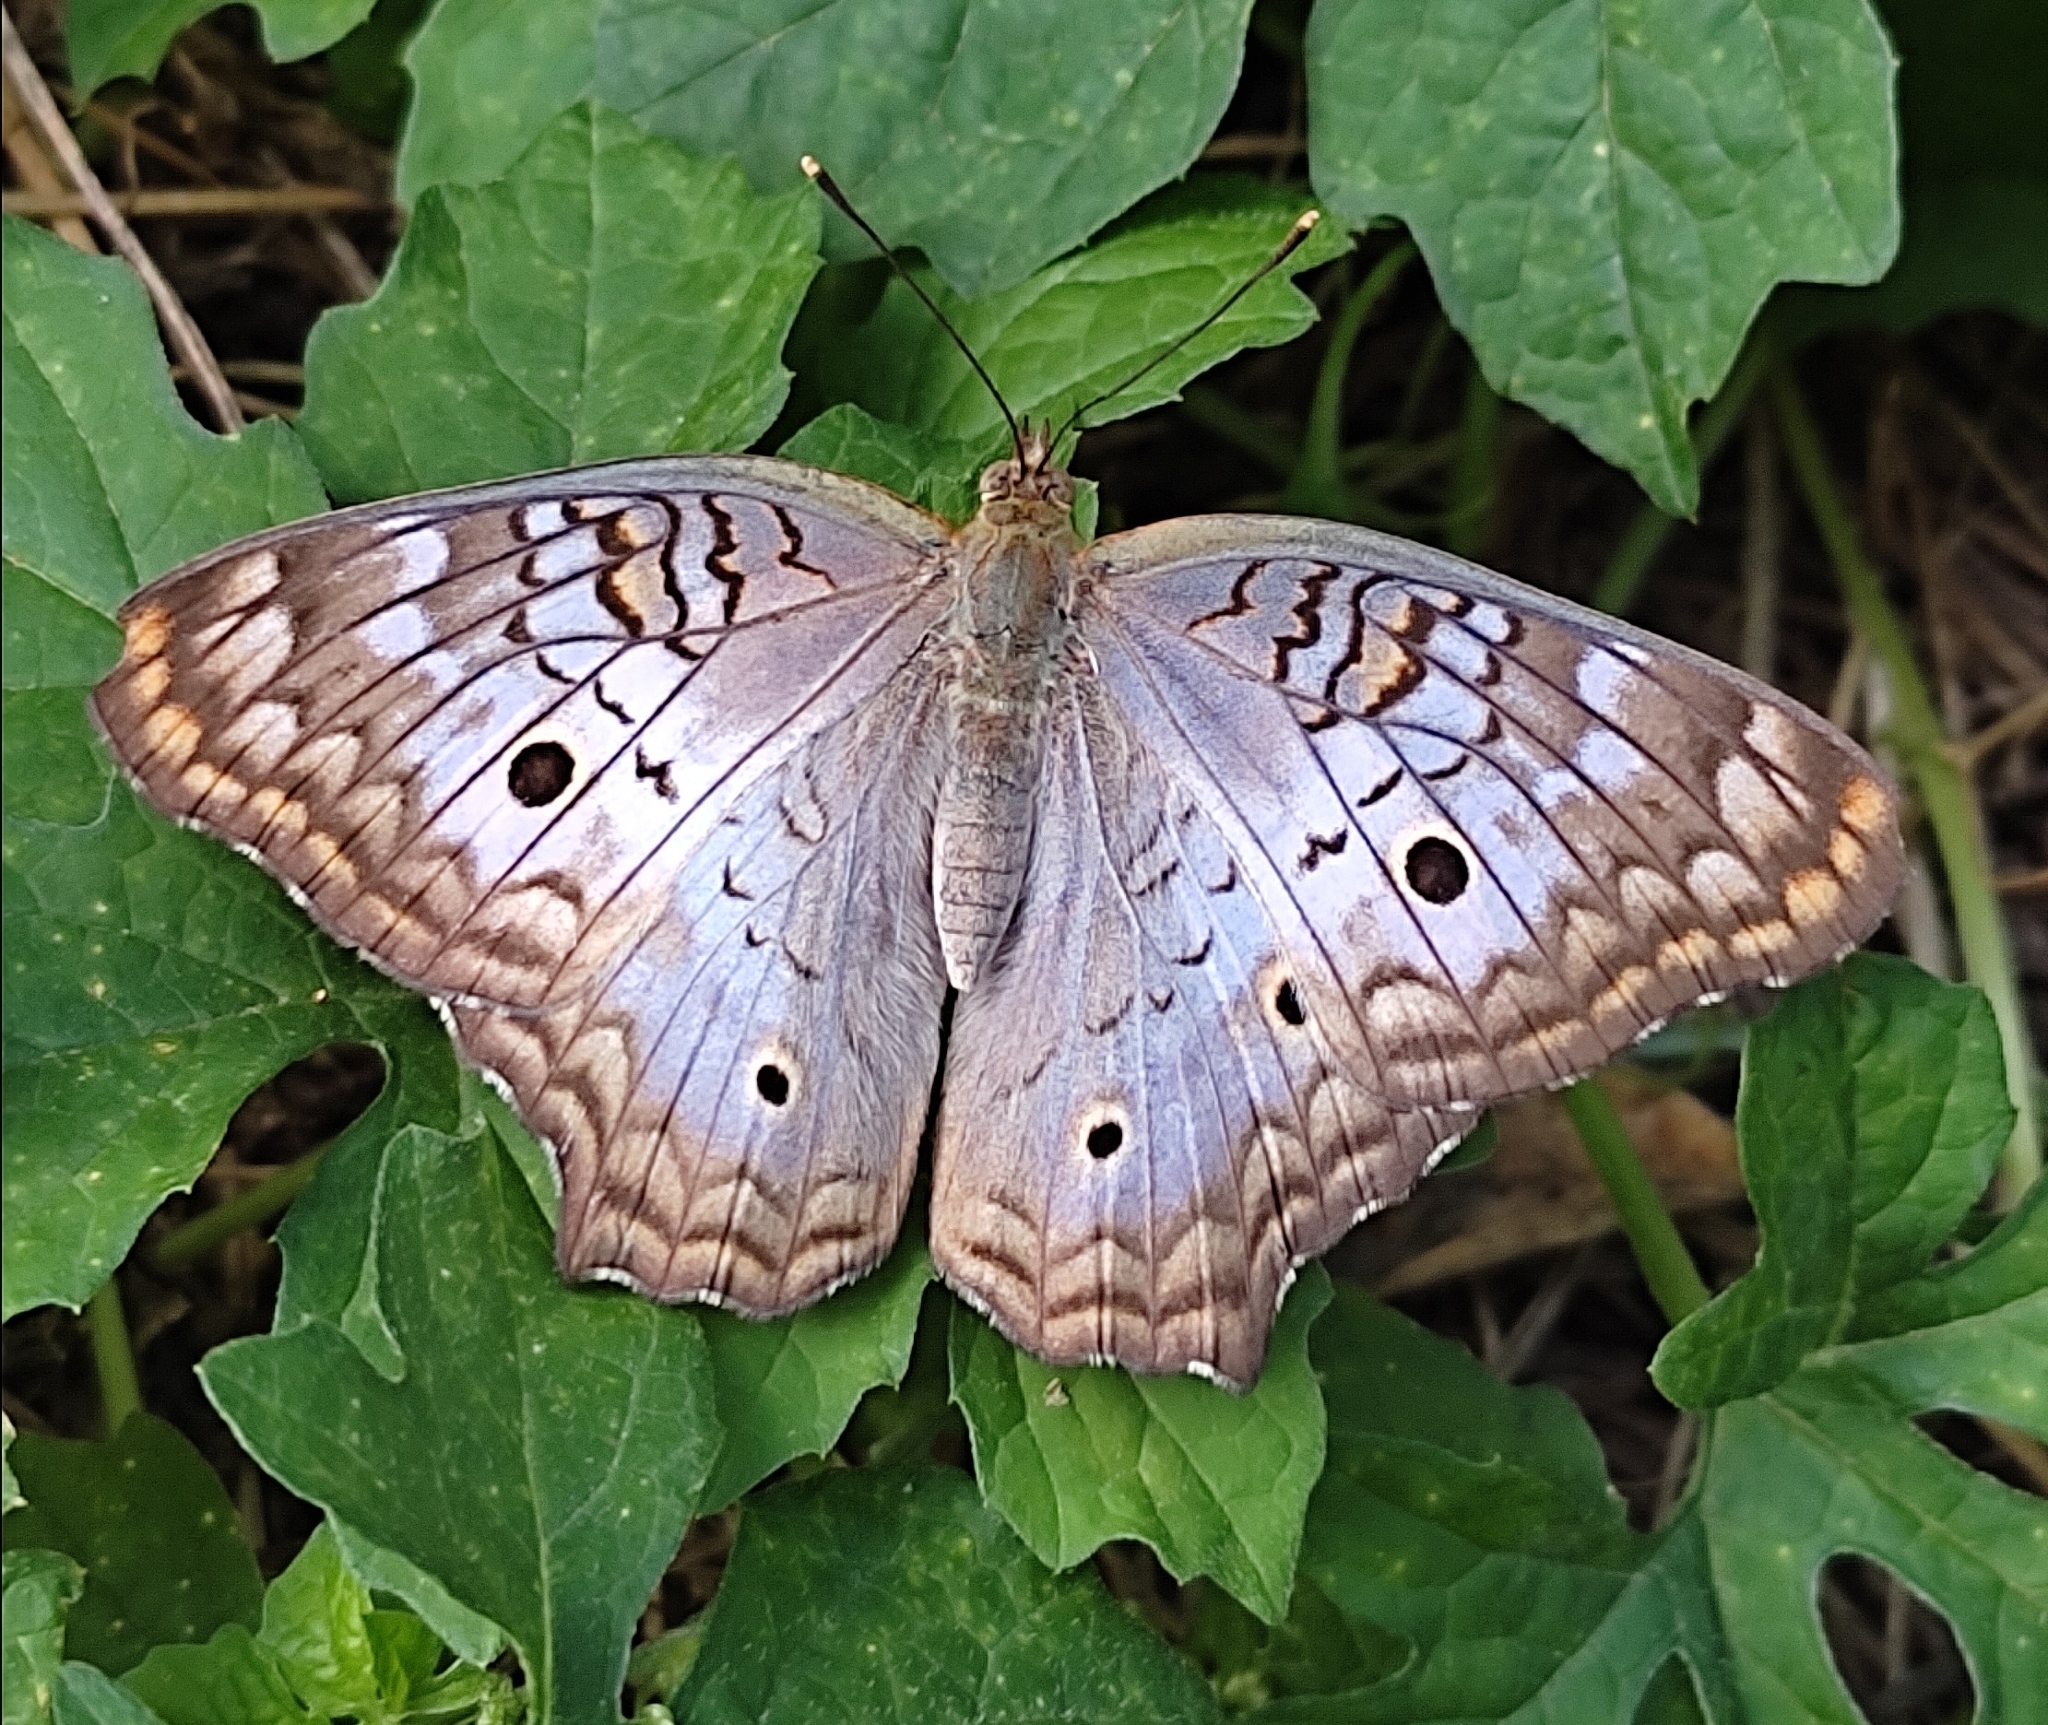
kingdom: Animalia
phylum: Arthropoda
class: Insecta
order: Lepidoptera
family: Nymphalidae
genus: Anartia
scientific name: Anartia jatrophae
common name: White peacock
